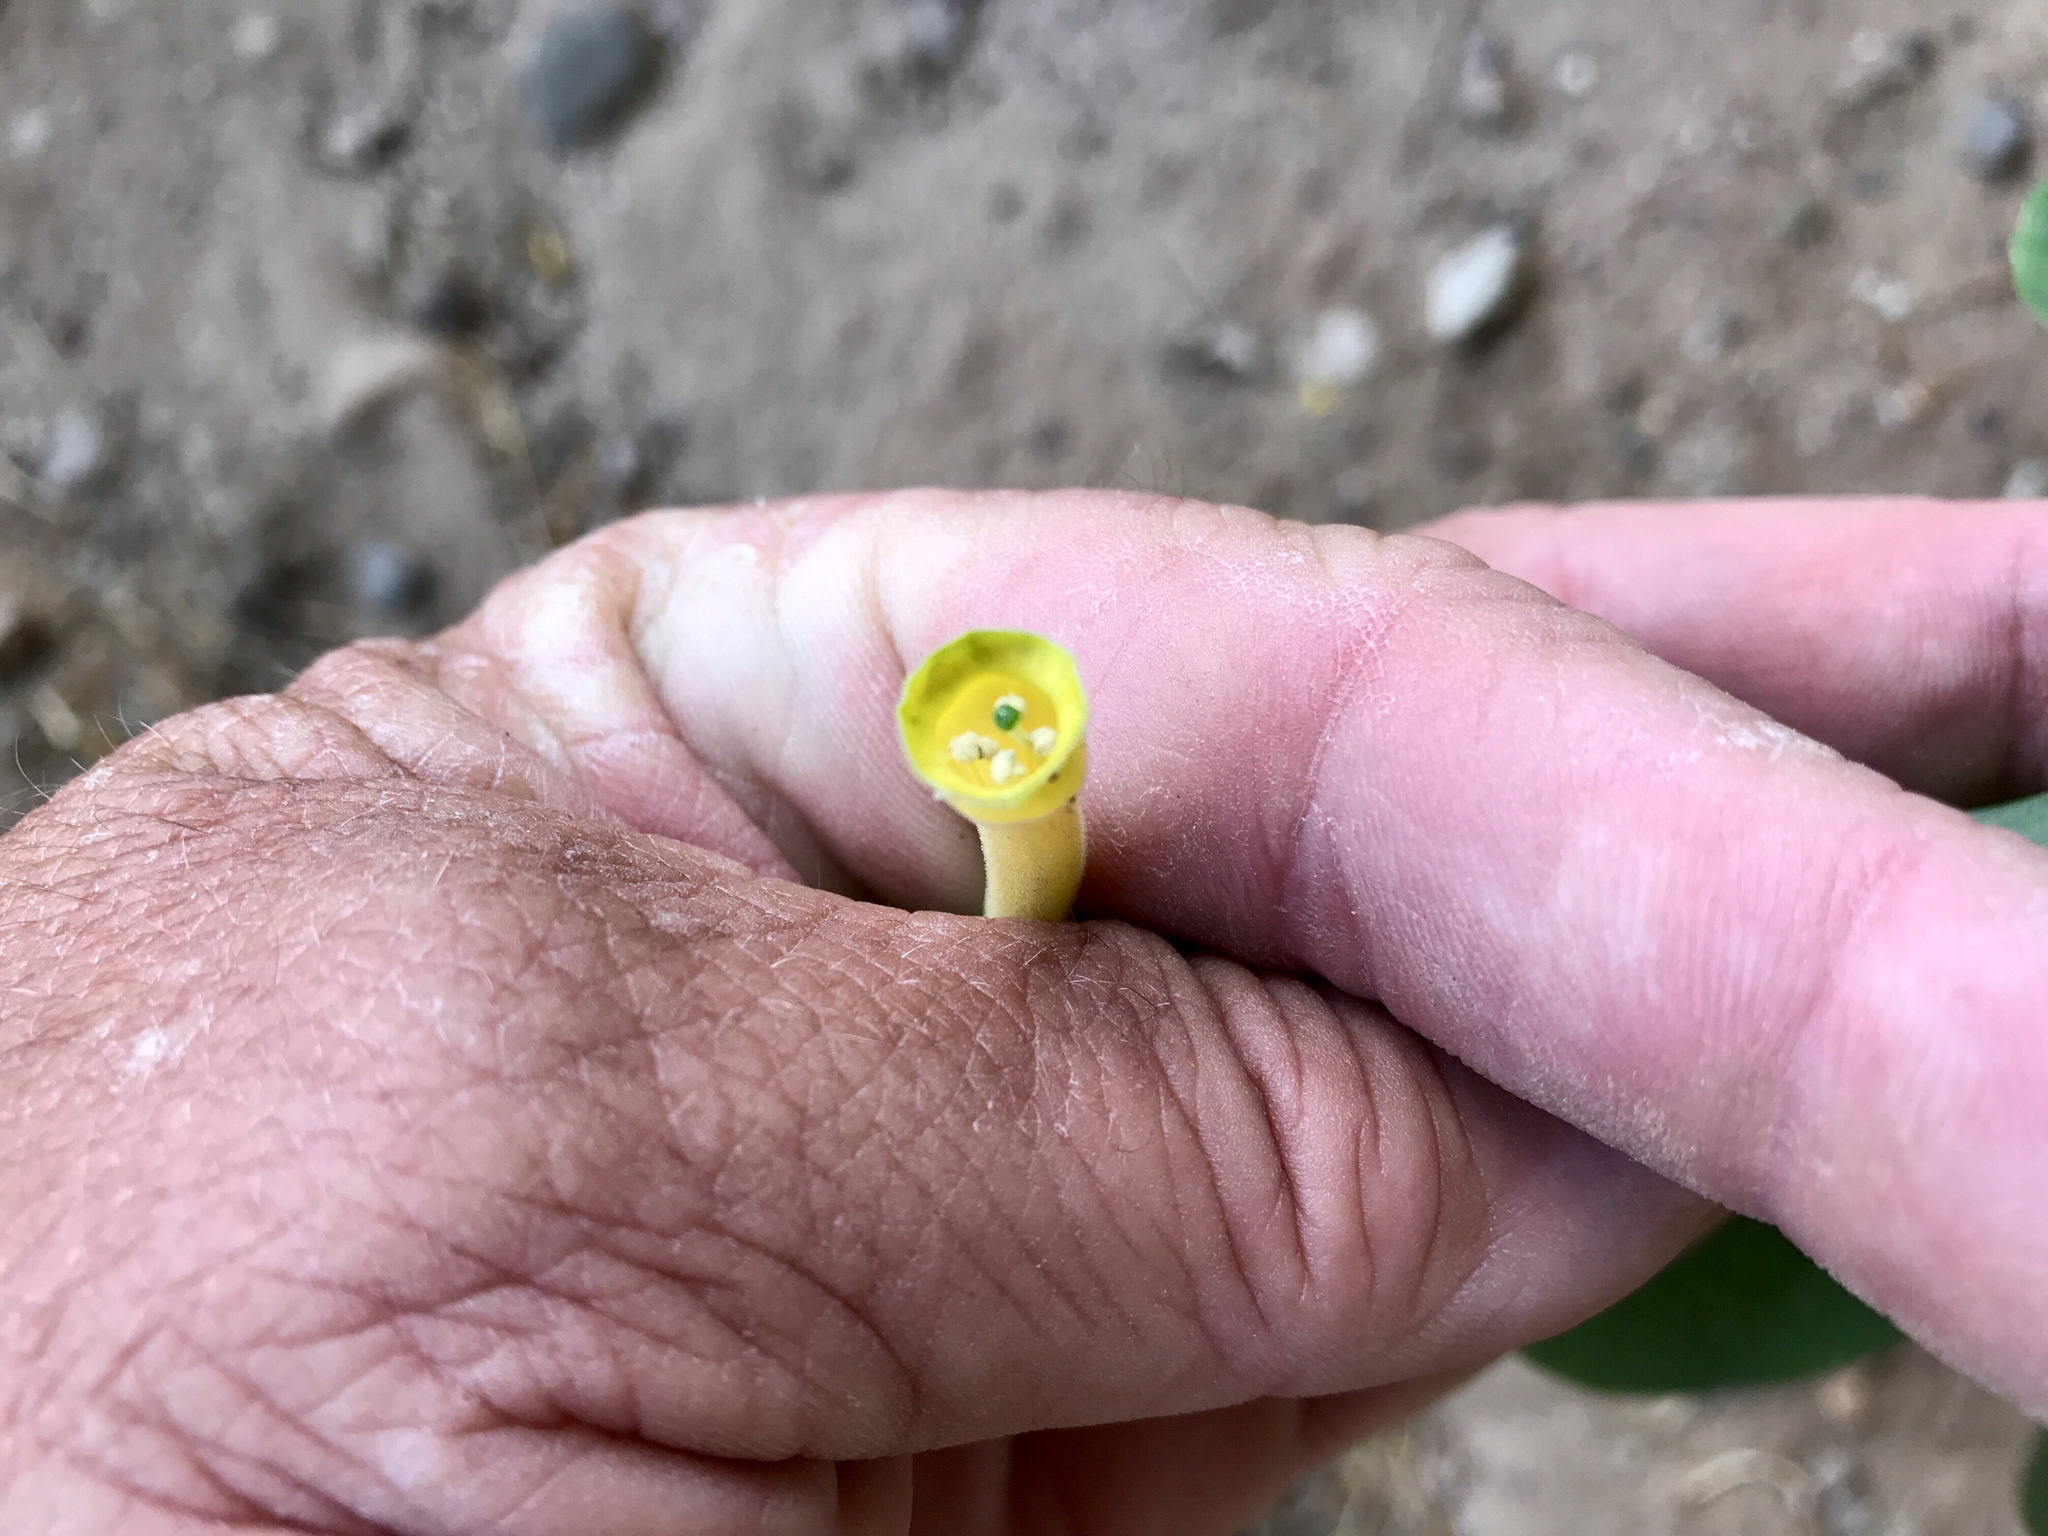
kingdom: Plantae
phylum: Tracheophyta
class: Magnoliopsida
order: Solanales
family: Solanaceae
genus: Nicotiana
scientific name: Nicotiana glauca
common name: Tree tobacco
